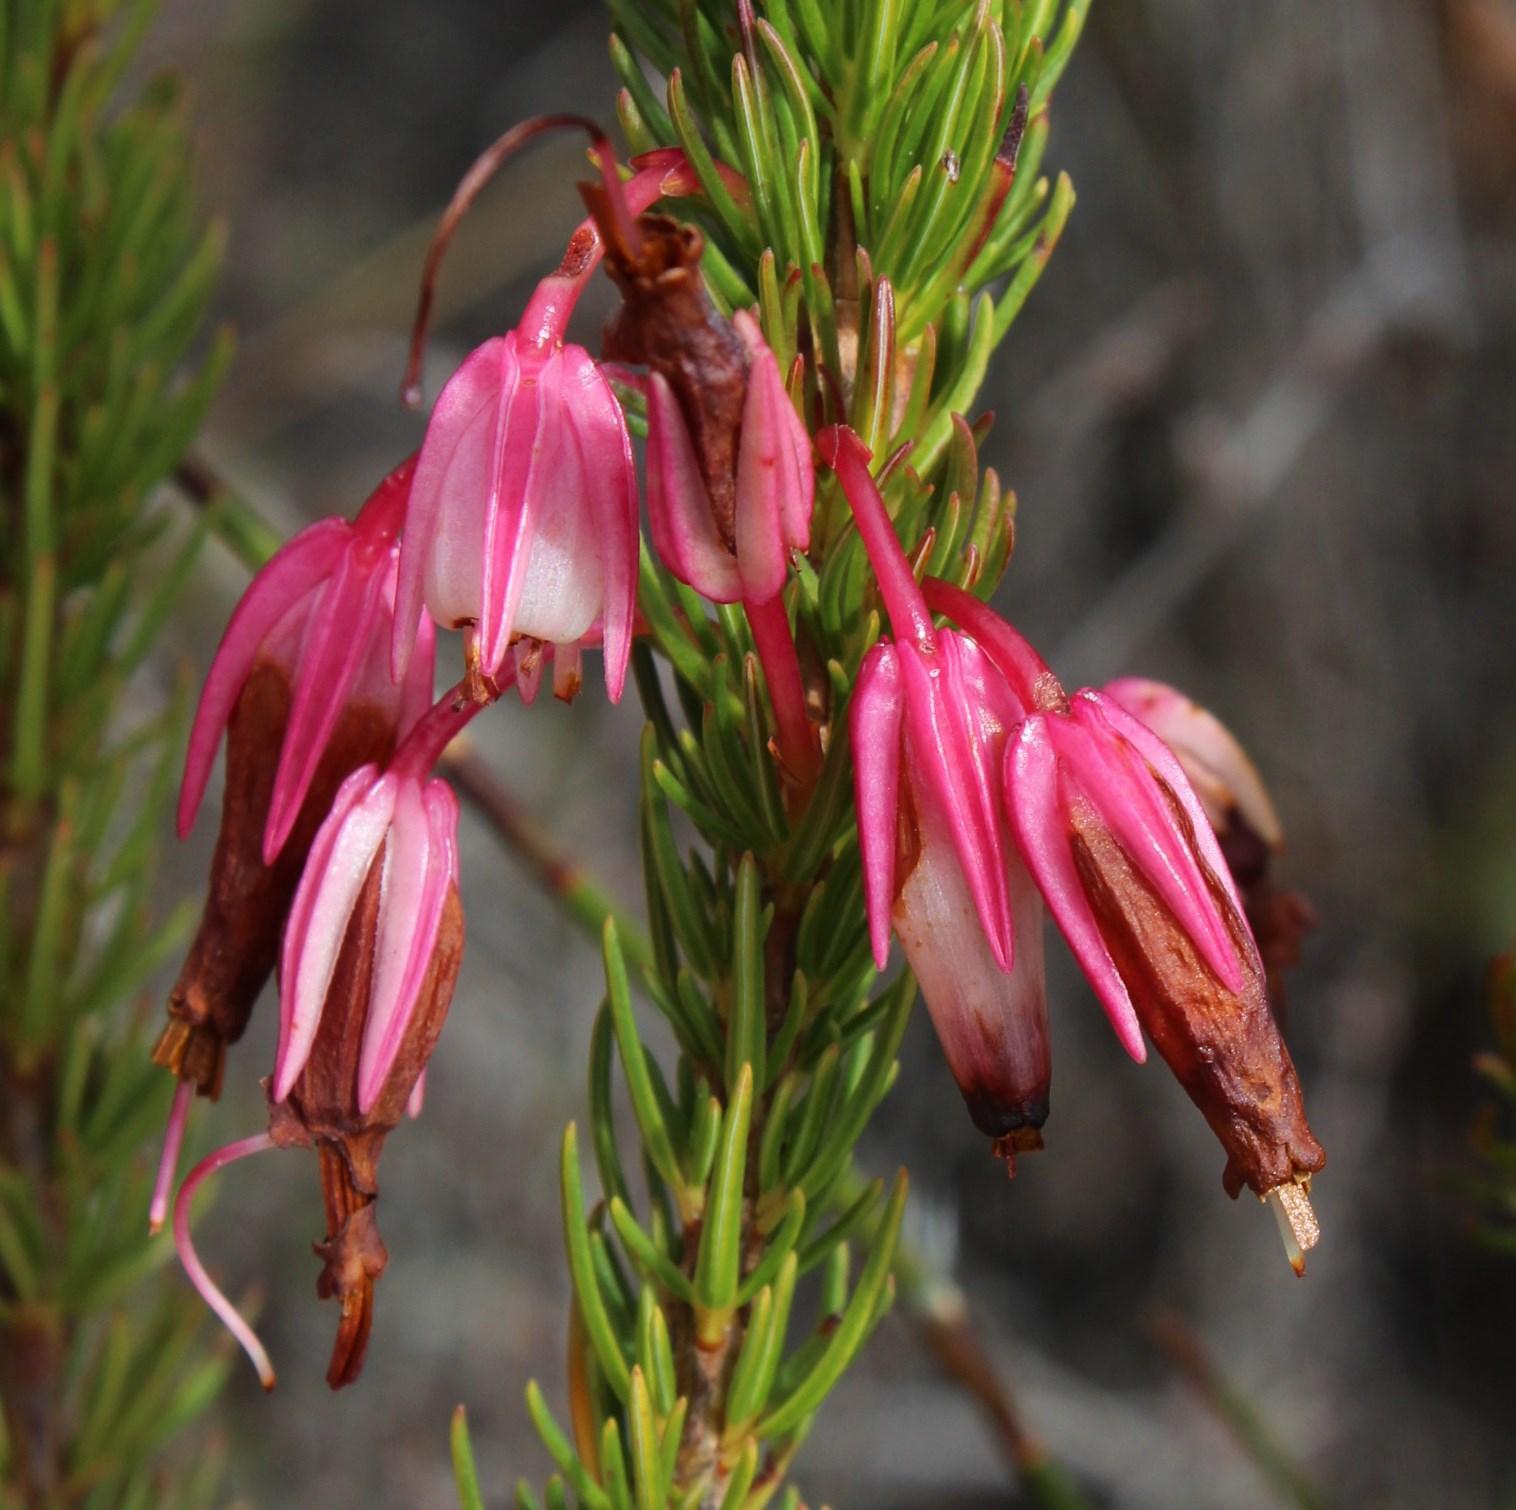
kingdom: Plantae
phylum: Tracheophyta
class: Magnoliopsida
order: Ericales
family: Ericaceae
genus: Erica
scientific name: Erica plukenetii
